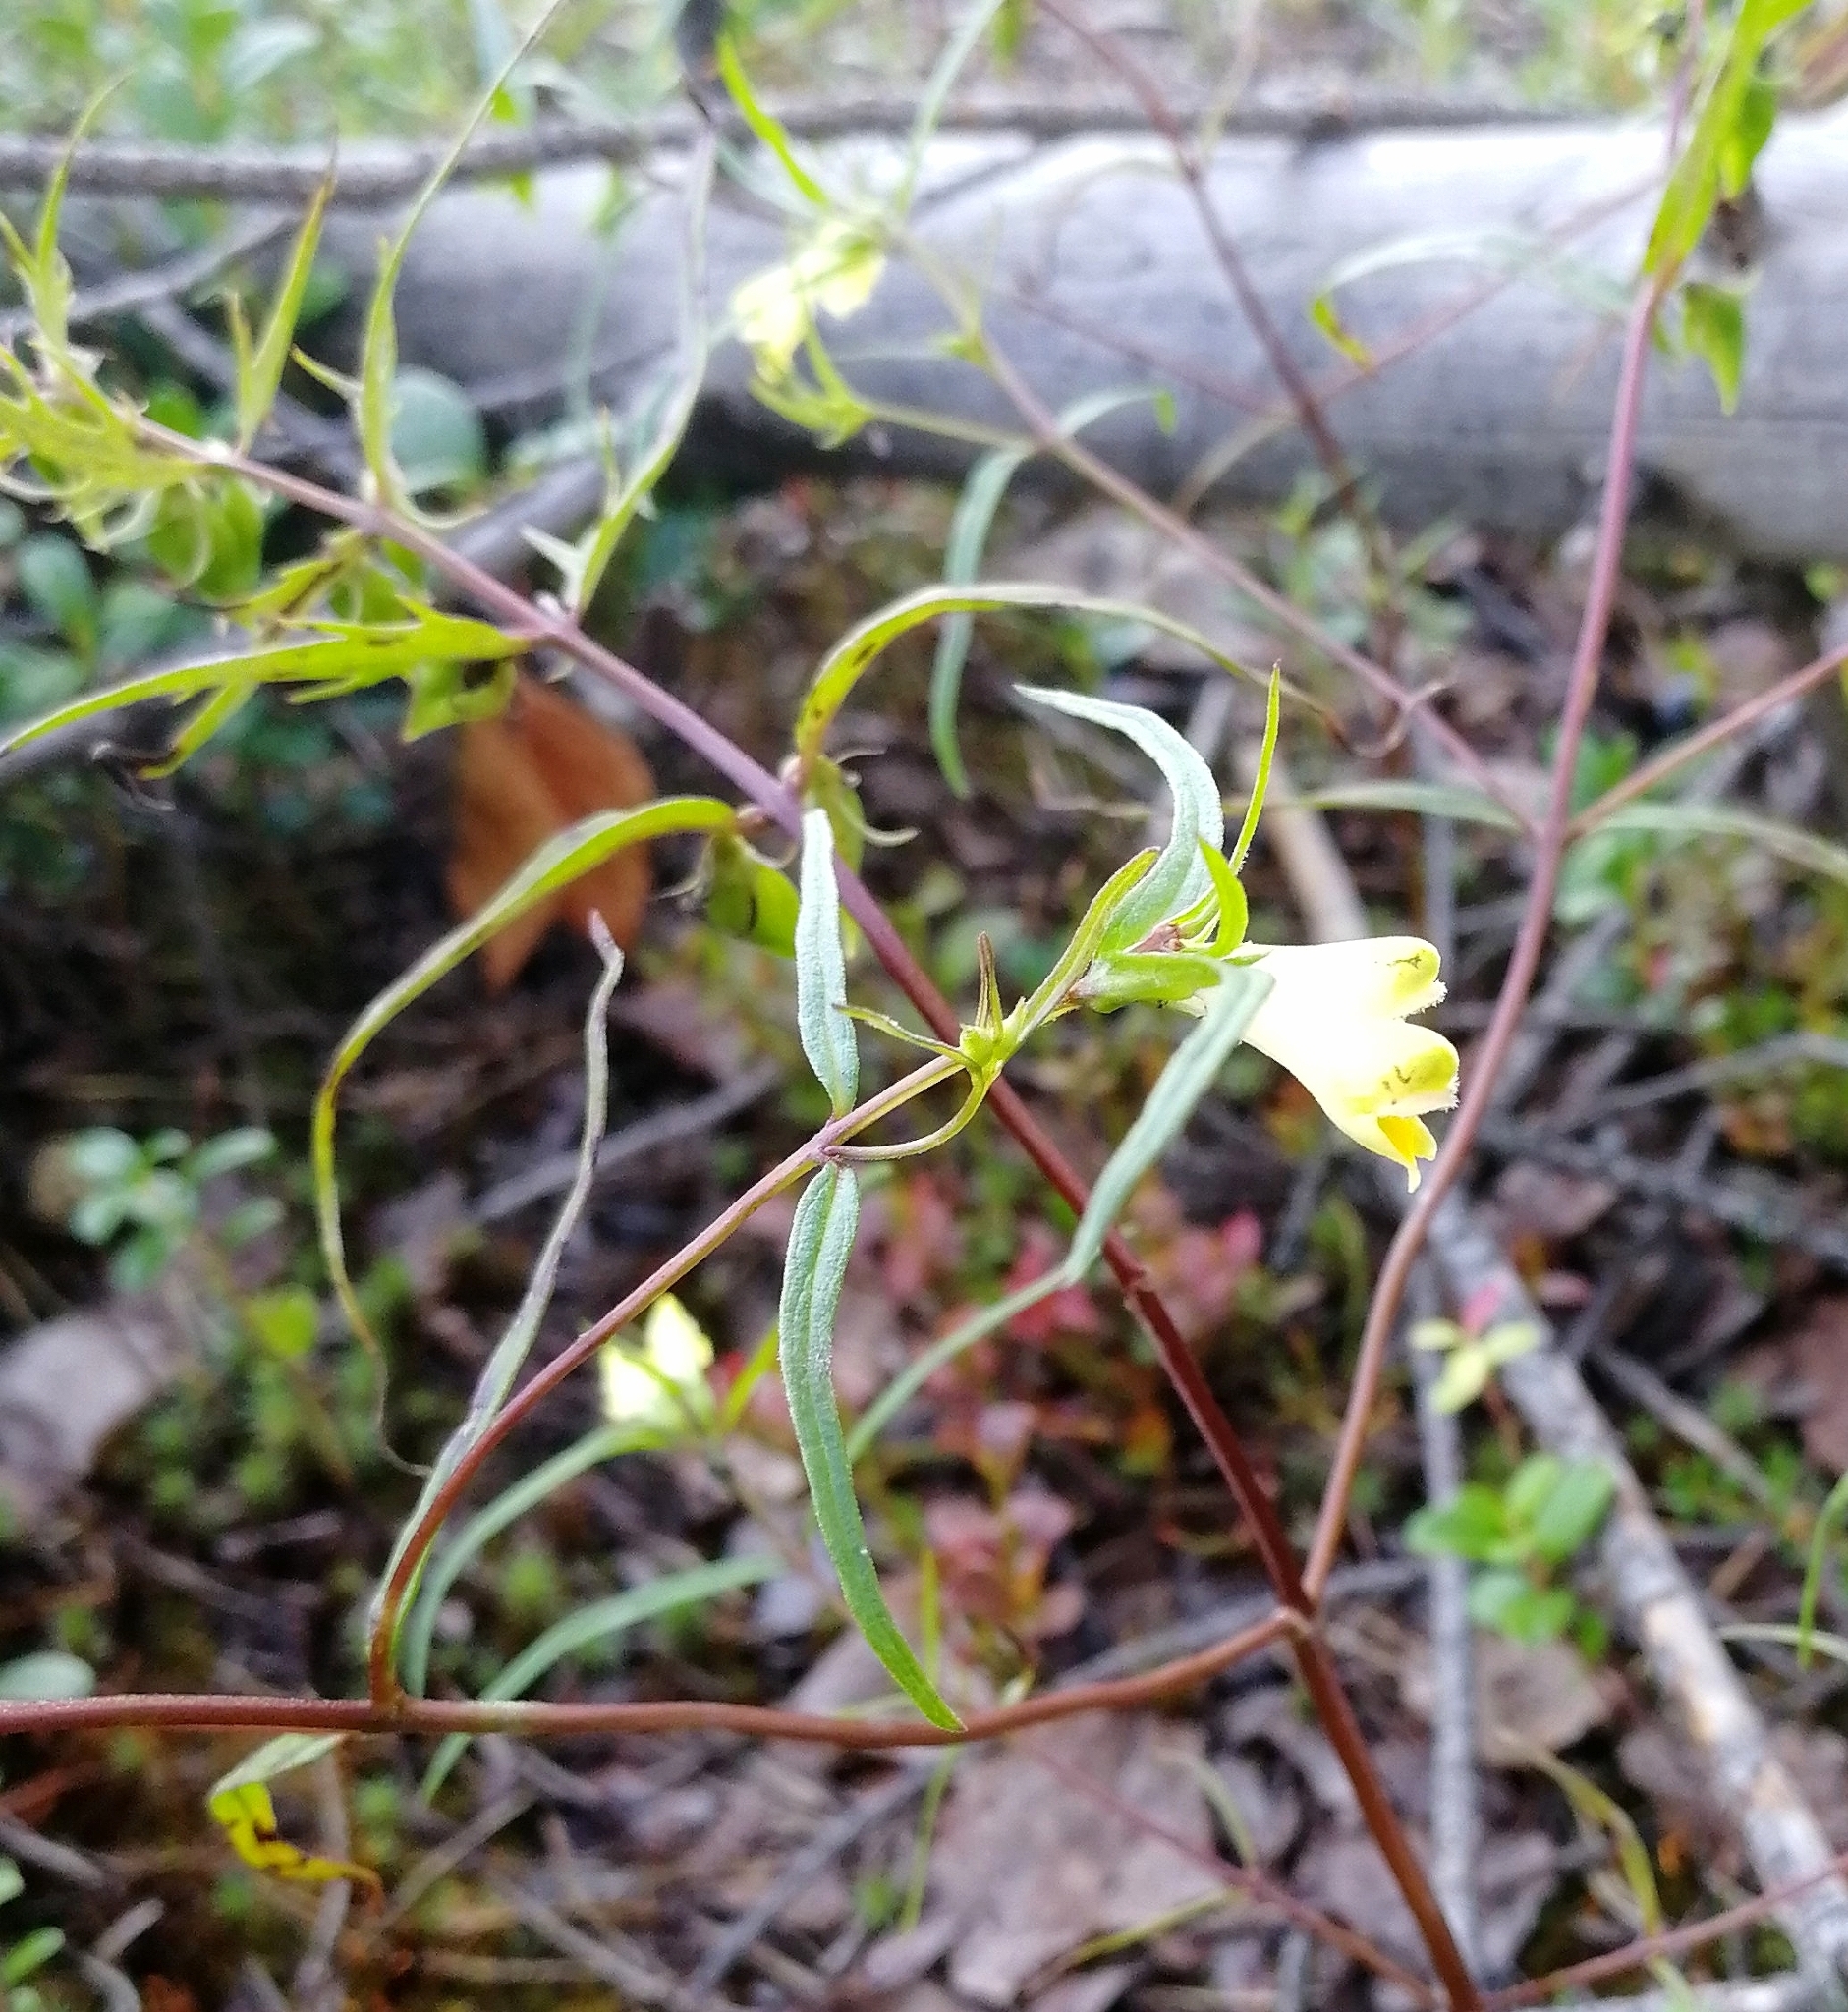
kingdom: Plantae
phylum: Tracheophyta
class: Magnoliopsida
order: Lamiales
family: Orobanchaceae
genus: Melampyrum
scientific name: Melampyrum pratense
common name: Common cow-wheat
